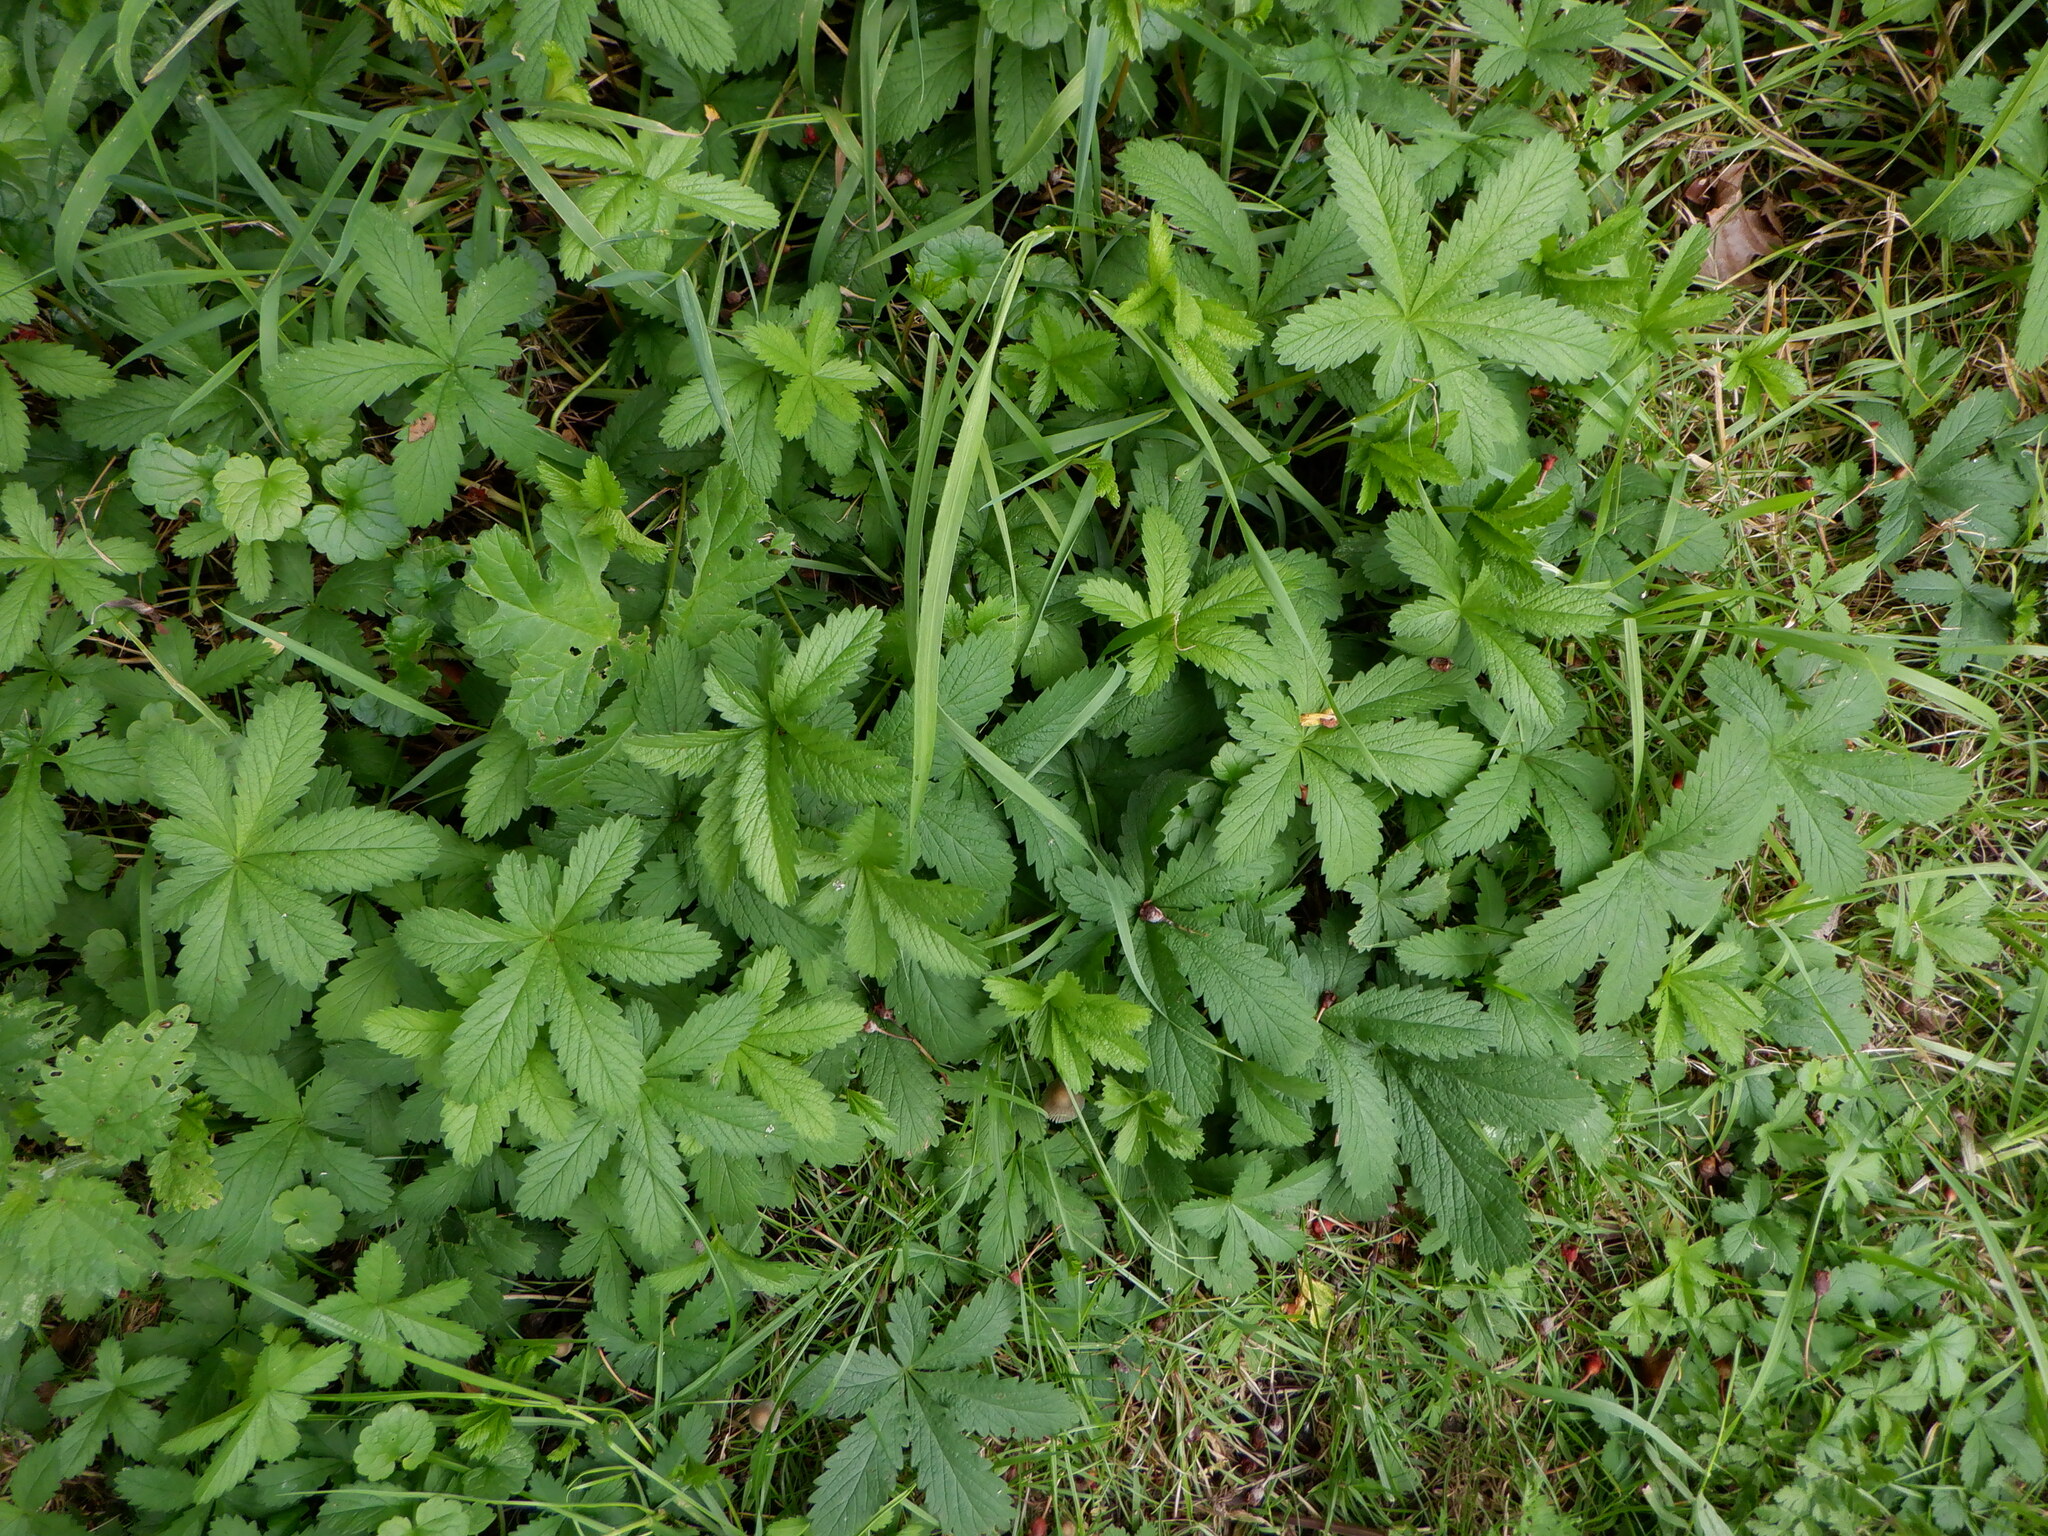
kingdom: Plantae
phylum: Tracheophyta
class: Magnoliopsida
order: Rosales
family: Rosaceae
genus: Potentilla
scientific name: Potentilla reptans
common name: Creeping cinquefoil
